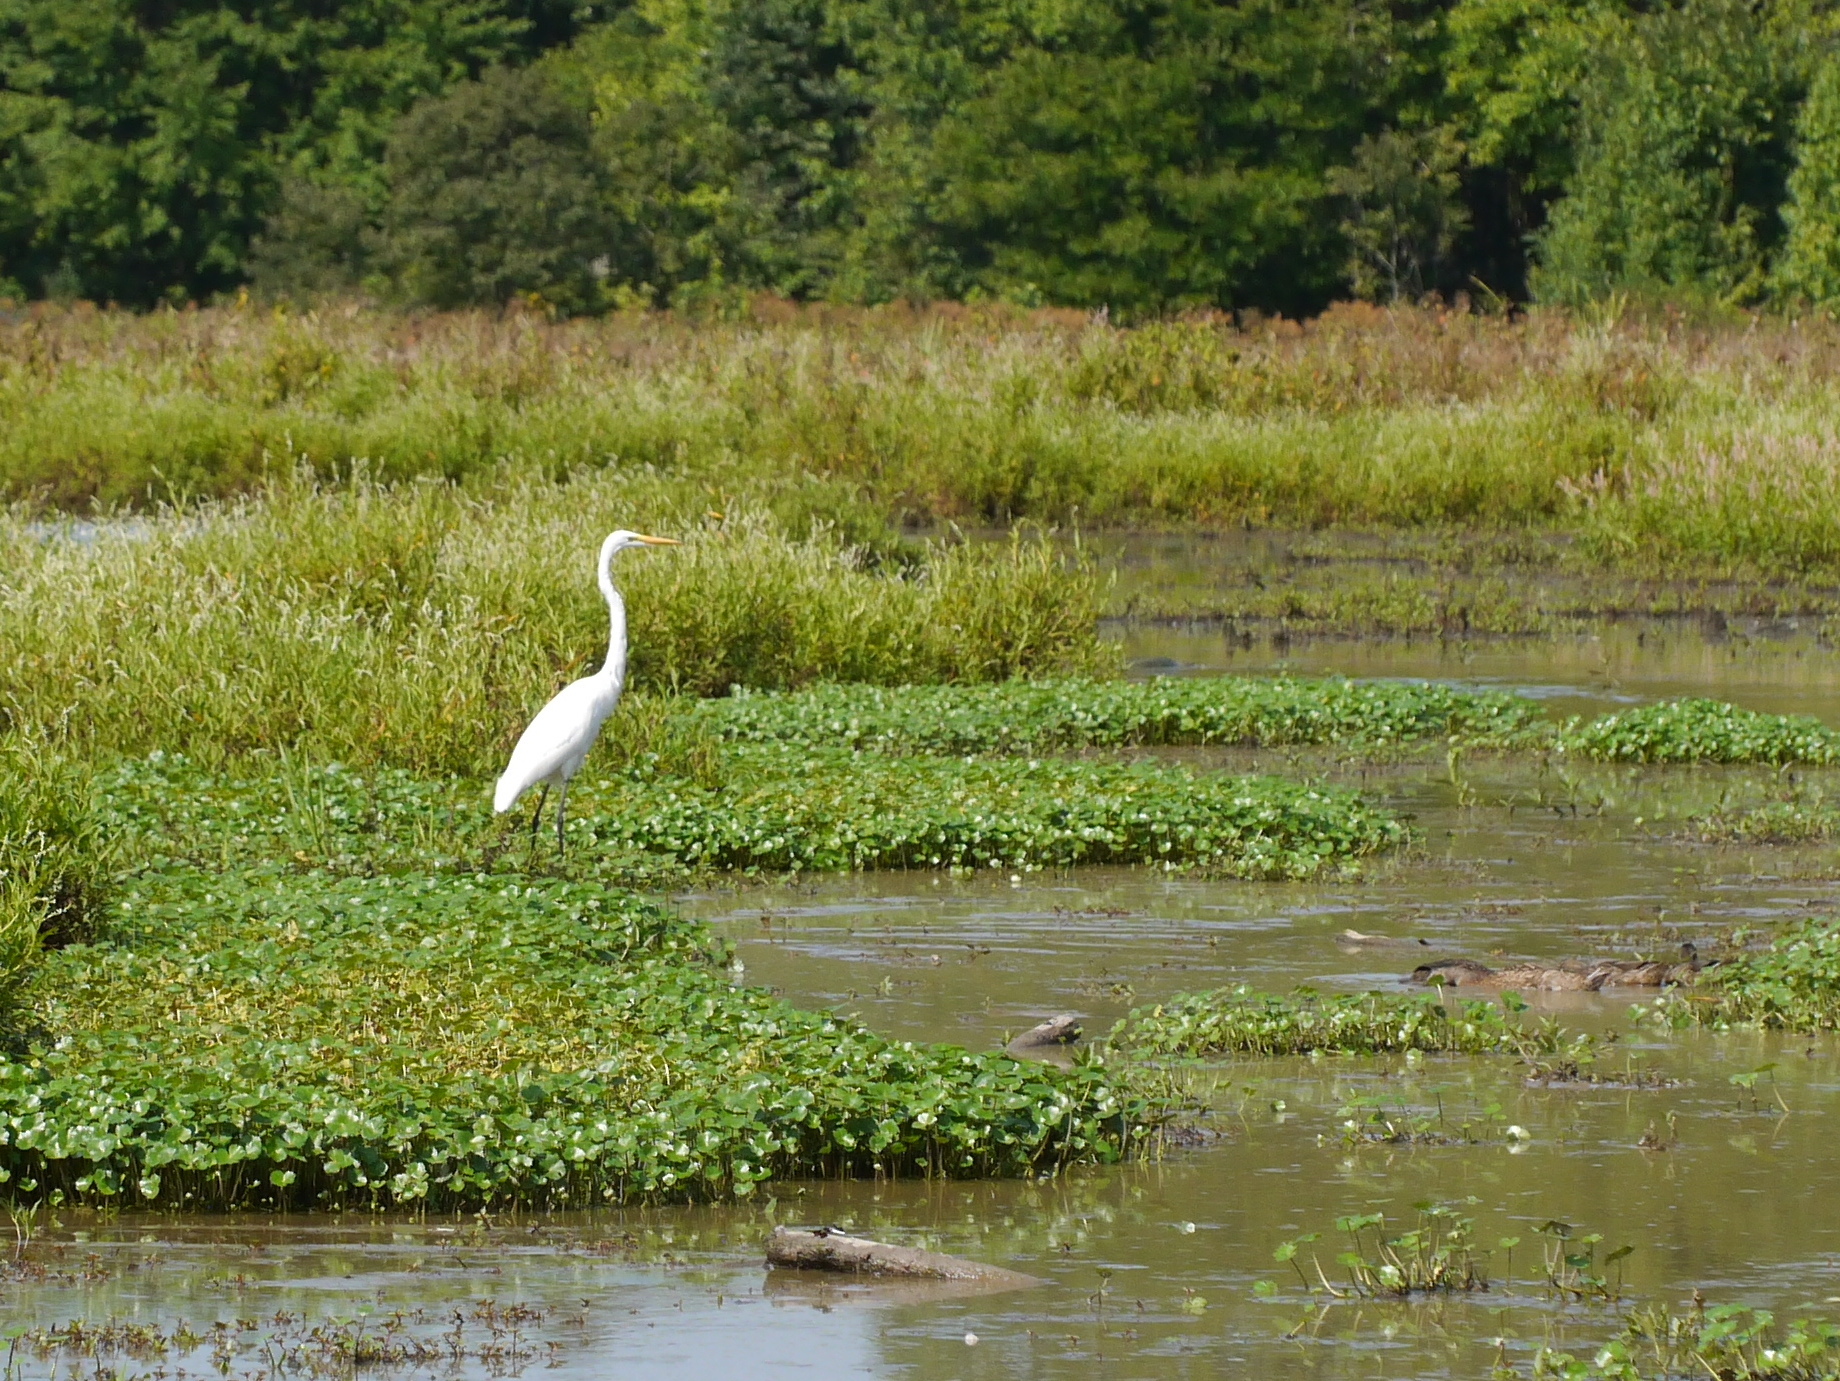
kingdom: Animalia
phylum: Chordata
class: Aves
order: Pelecaniformes
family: Ardeidae
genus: Ardea
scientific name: Ardea alba
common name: Great egret
